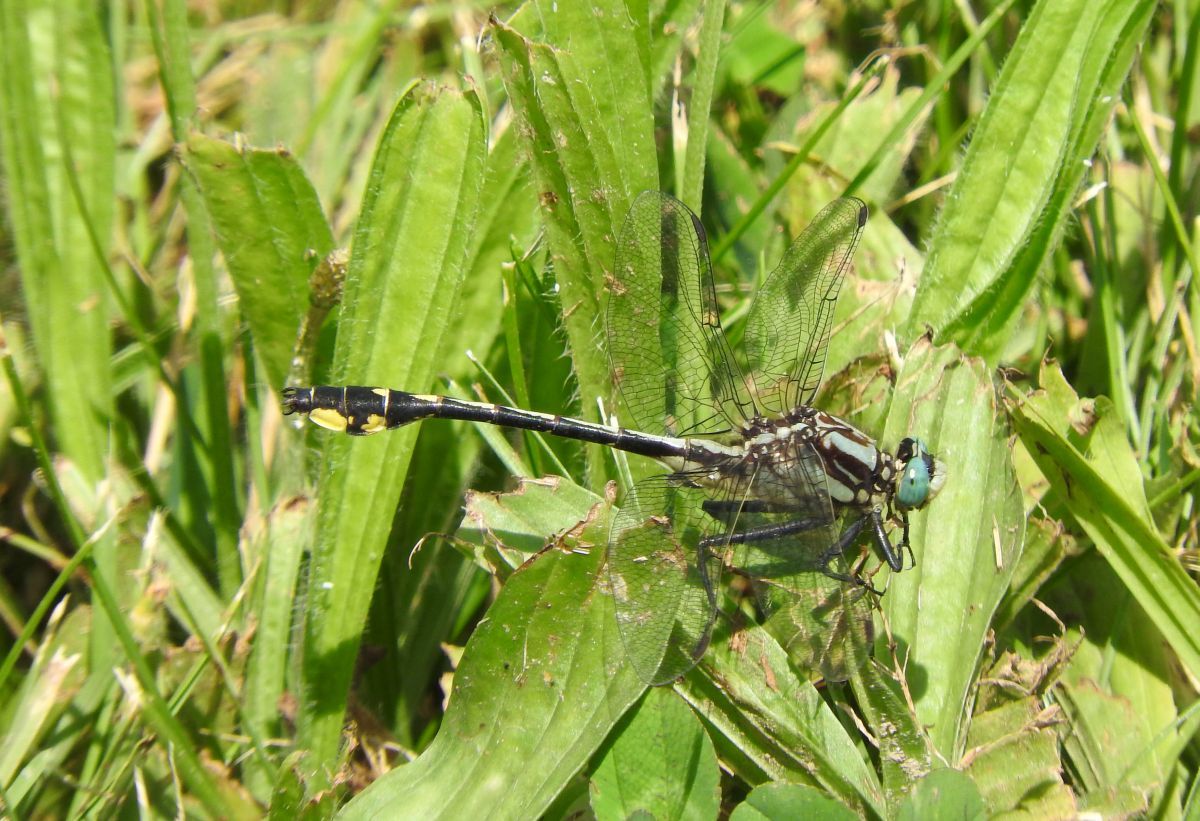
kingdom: Animalia
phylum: Arthropoda
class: Insecta
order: Odonata
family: Gomphidae
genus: Gomphurus
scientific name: Gomphurus fraternus
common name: Midland clubtail
